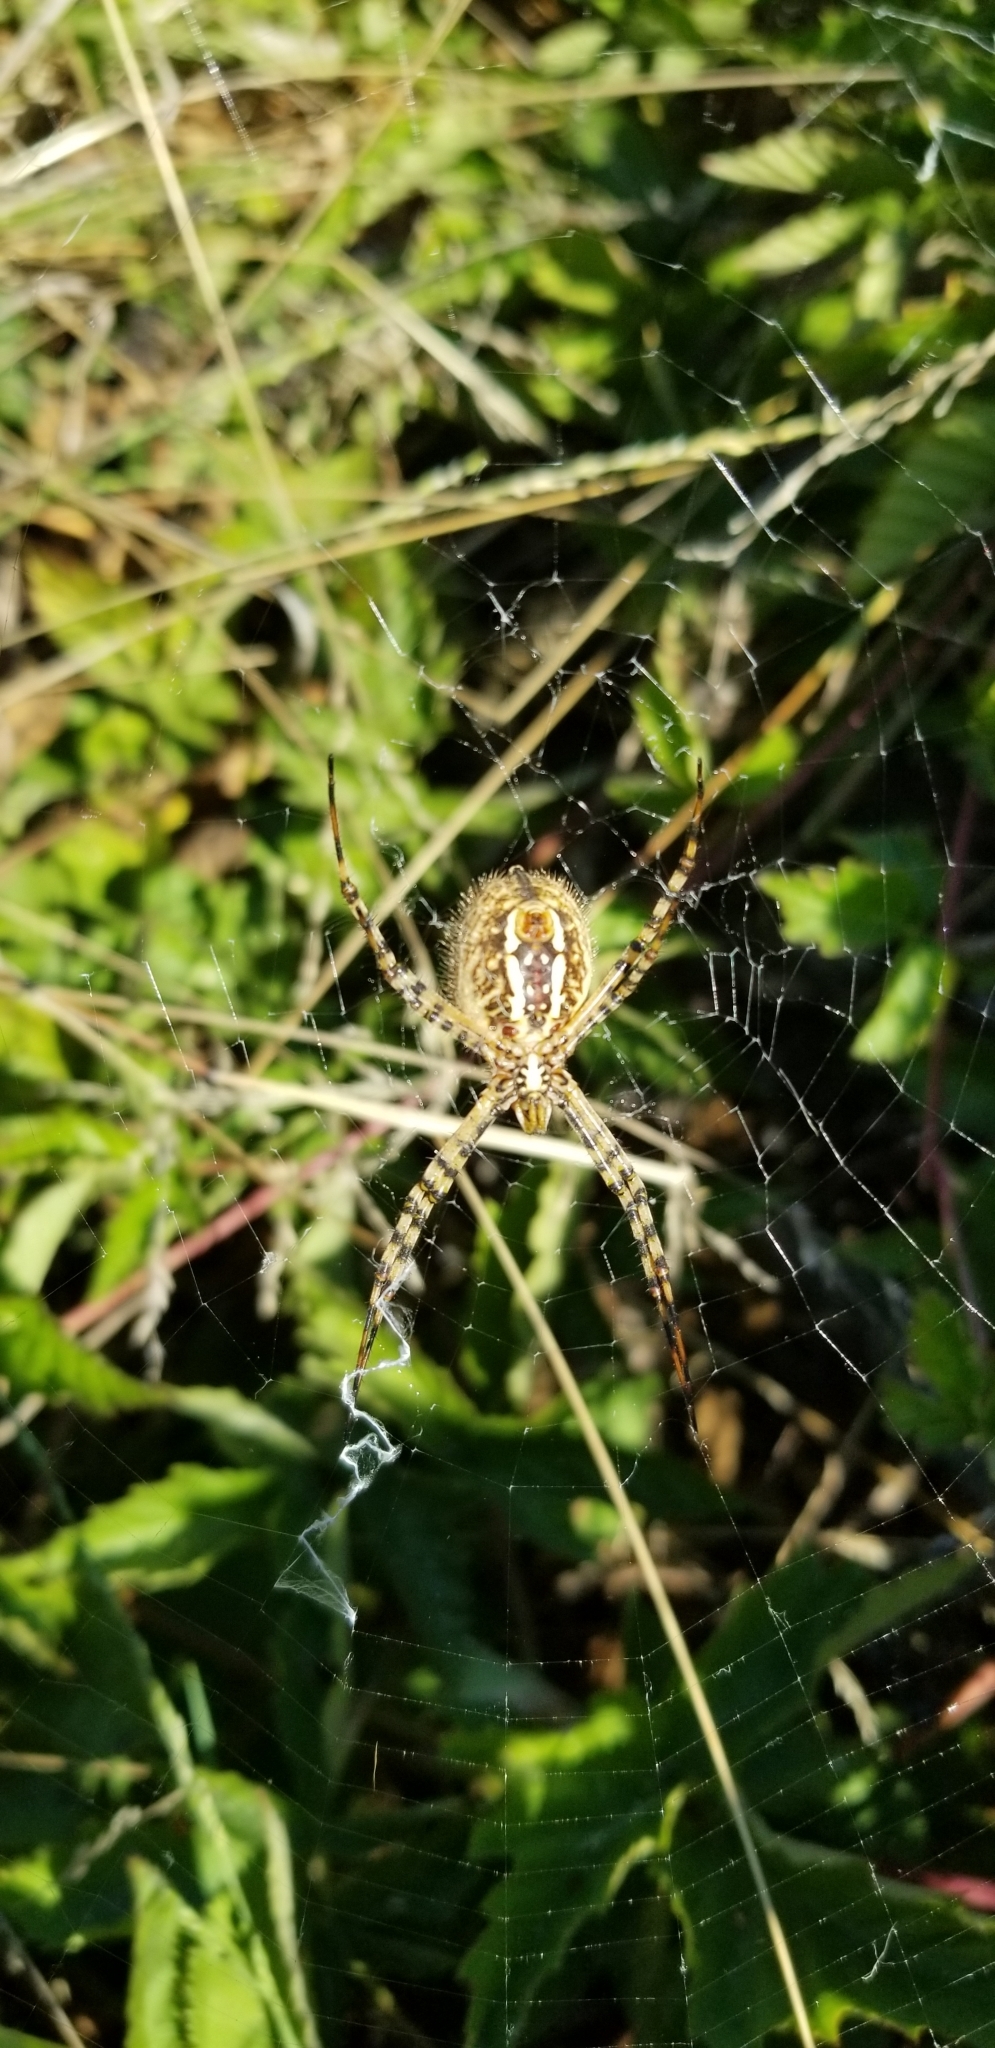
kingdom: Animalia
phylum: Arthropoda
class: Arachnida
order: Araneae
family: Araneidae
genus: Argiope
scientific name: Argiope trifasciata
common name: Banded garden spider
